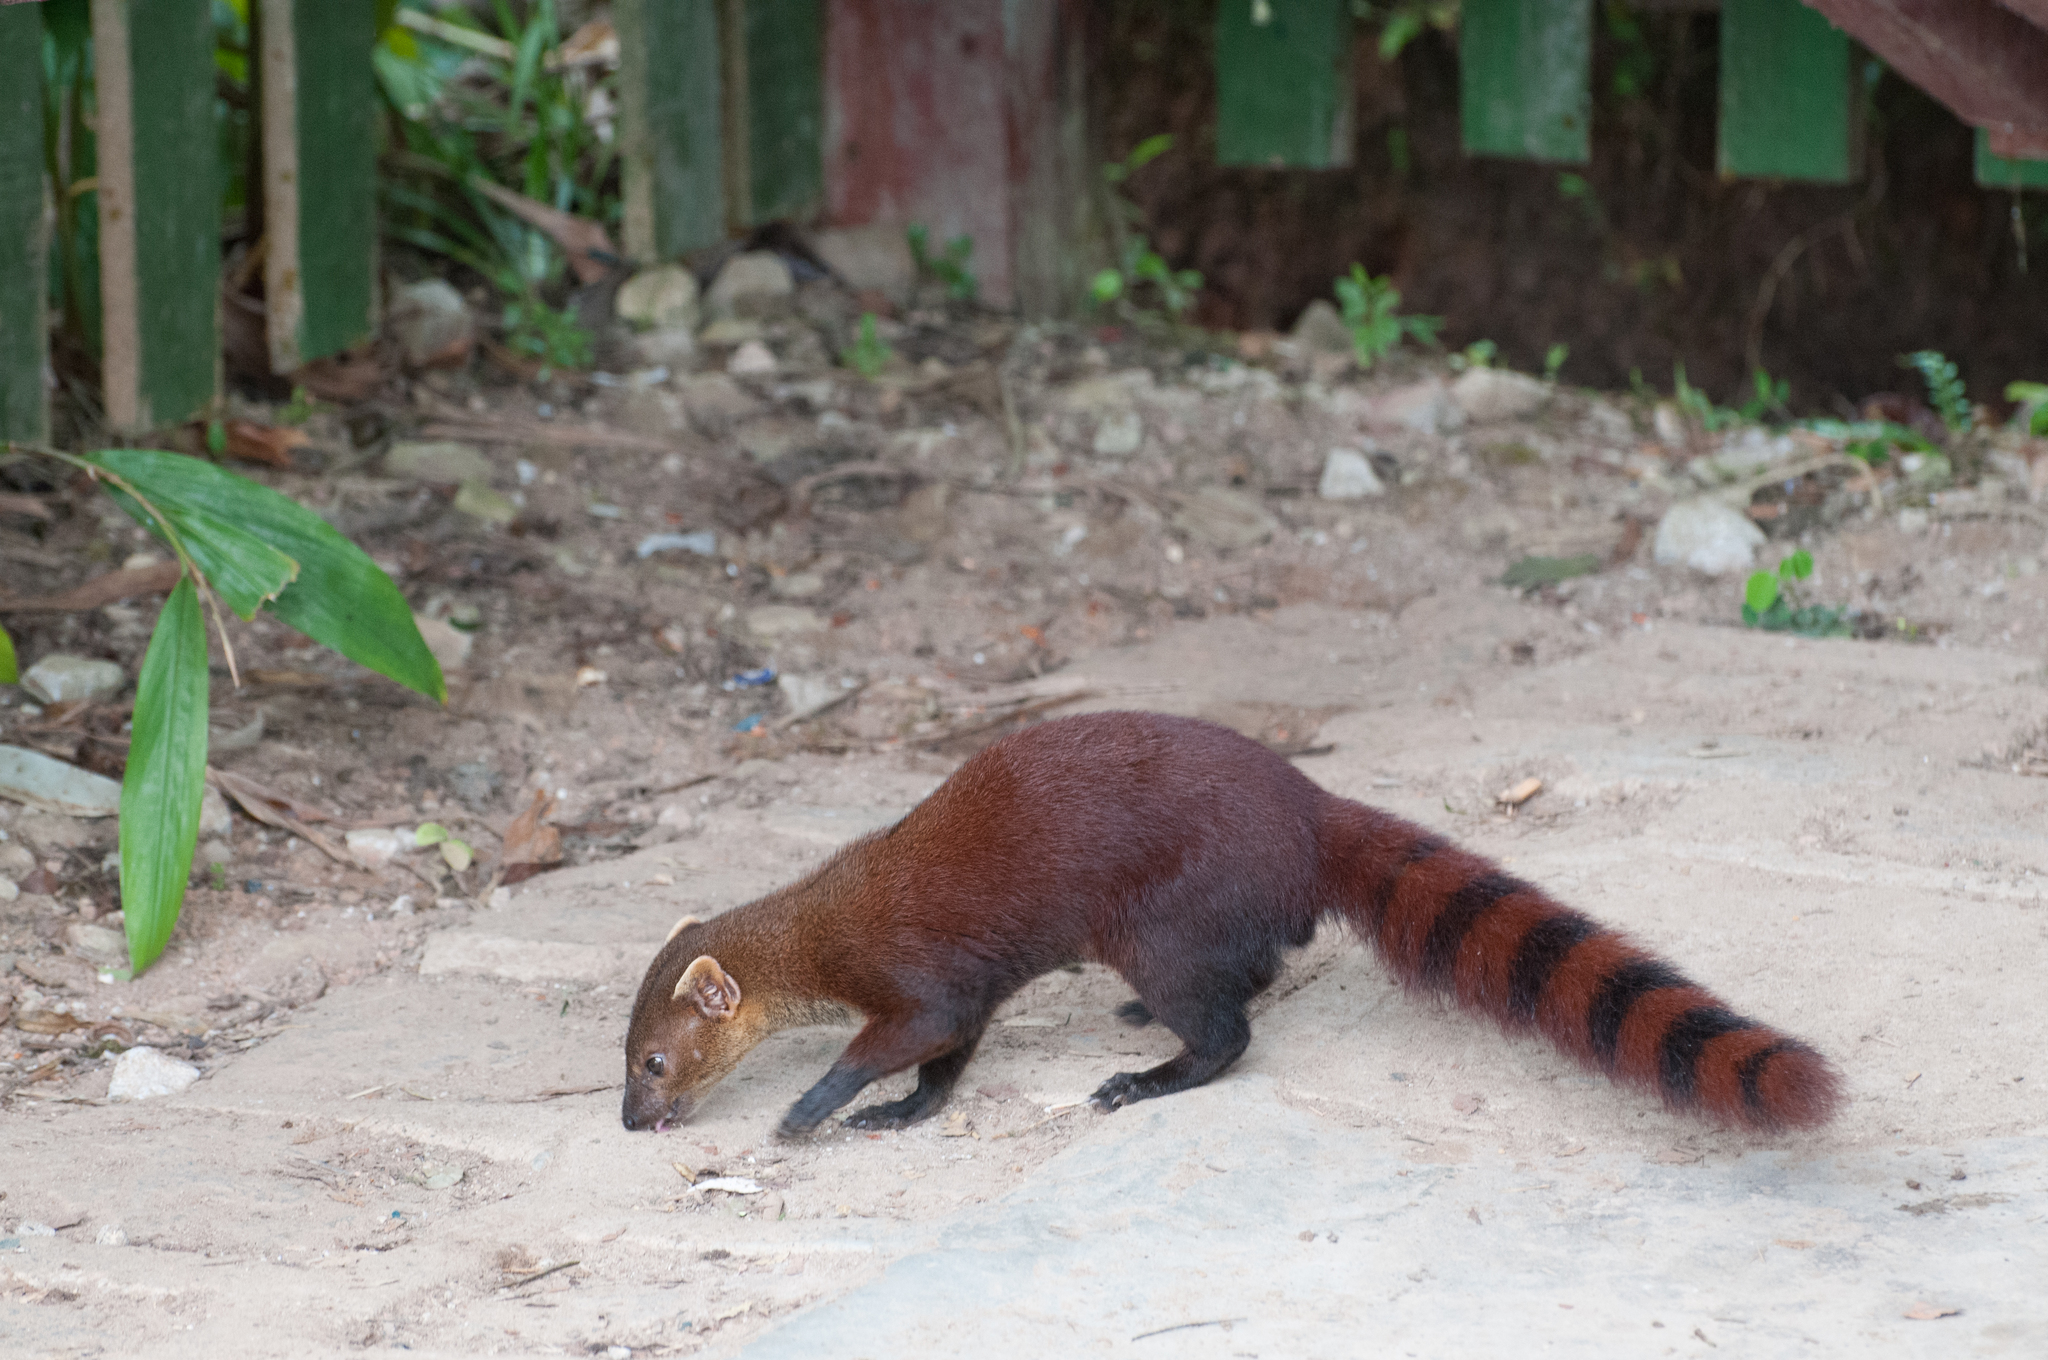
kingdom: Animalia
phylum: Chordata
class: Mammalia
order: Carnivora
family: Eupleridae
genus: Galidia
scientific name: Galidia elegans
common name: Ring-tailed mongoose
